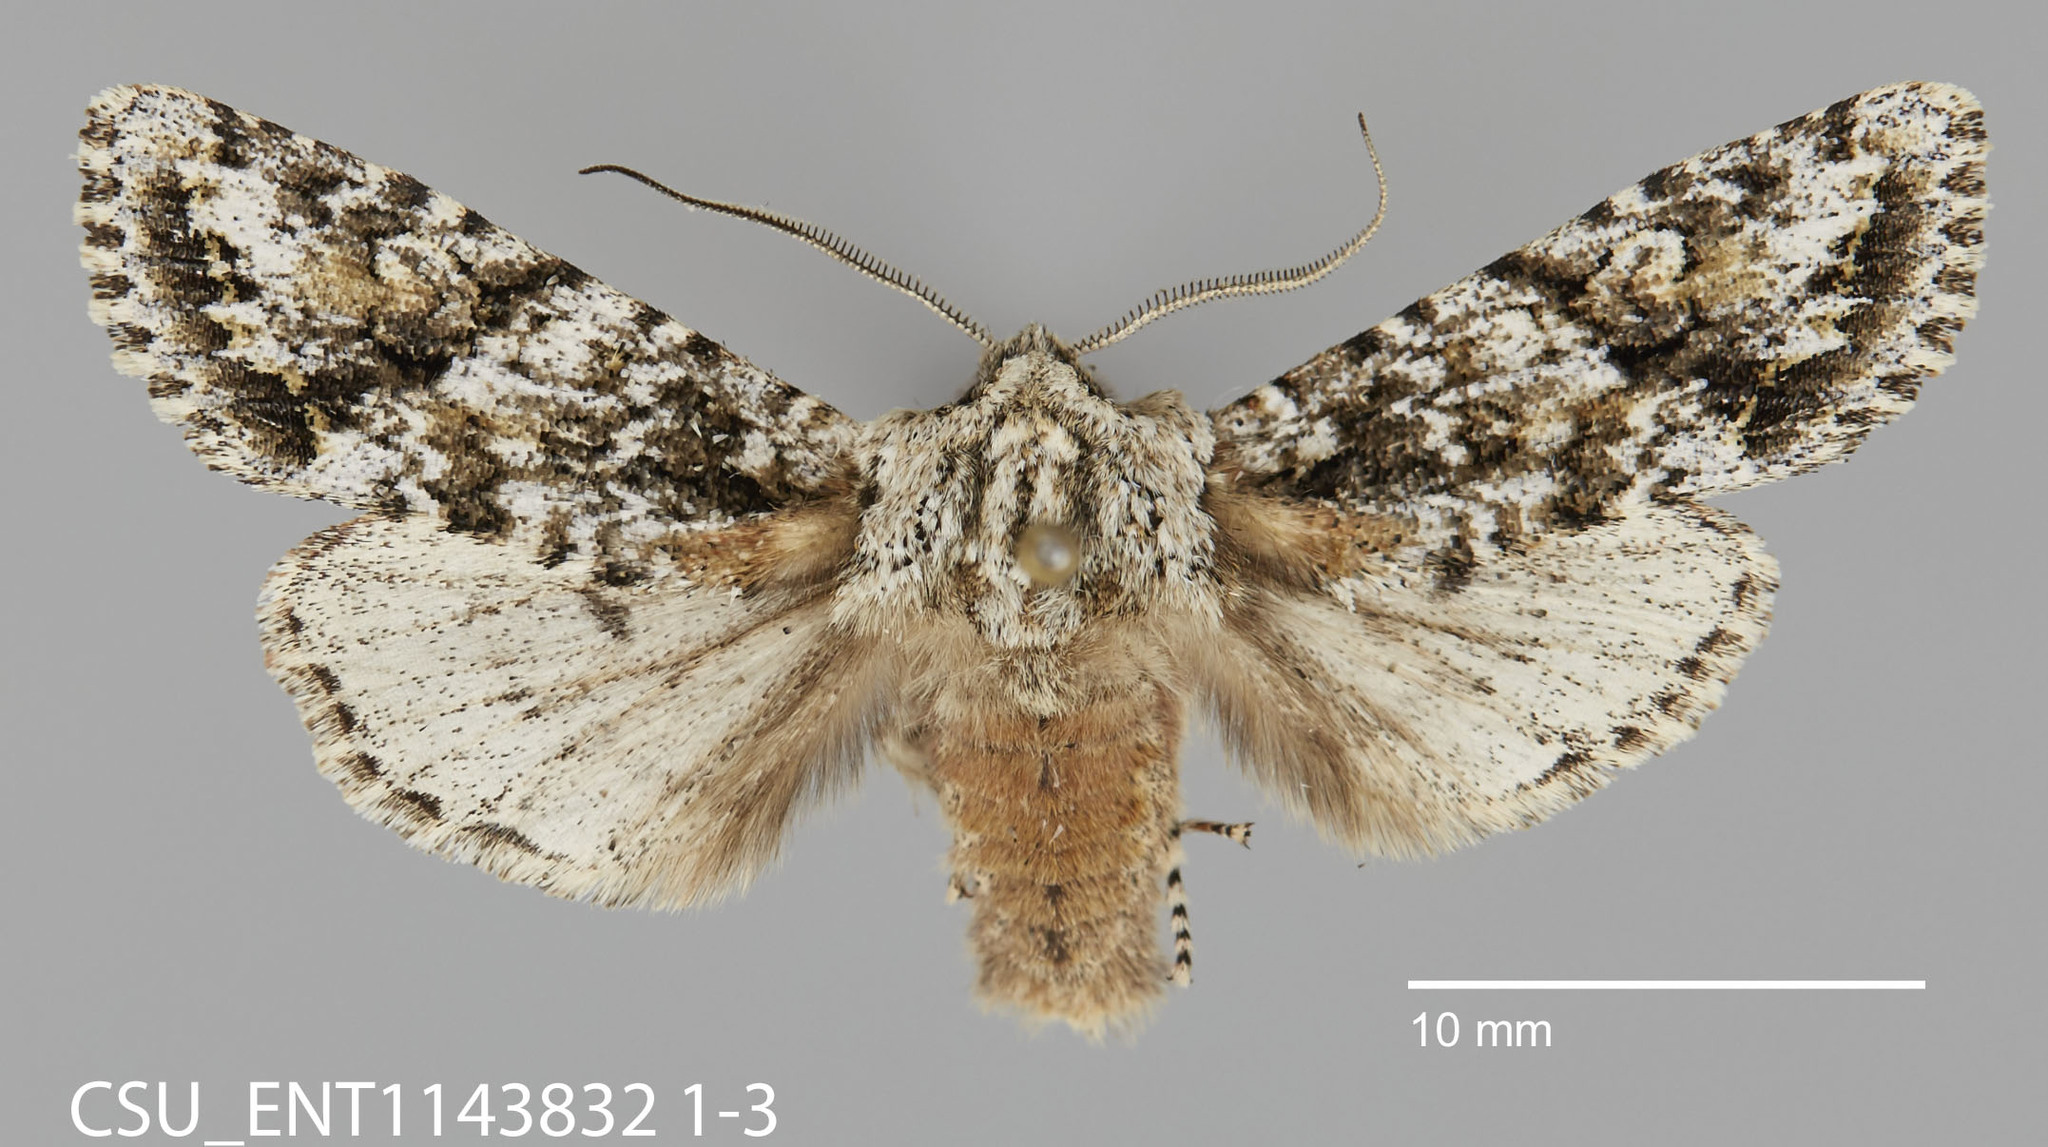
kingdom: Animalia
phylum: Arthropoda
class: Insecta
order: Lepidoptera
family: Noctuidae
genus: Egira
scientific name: Egira februalis
